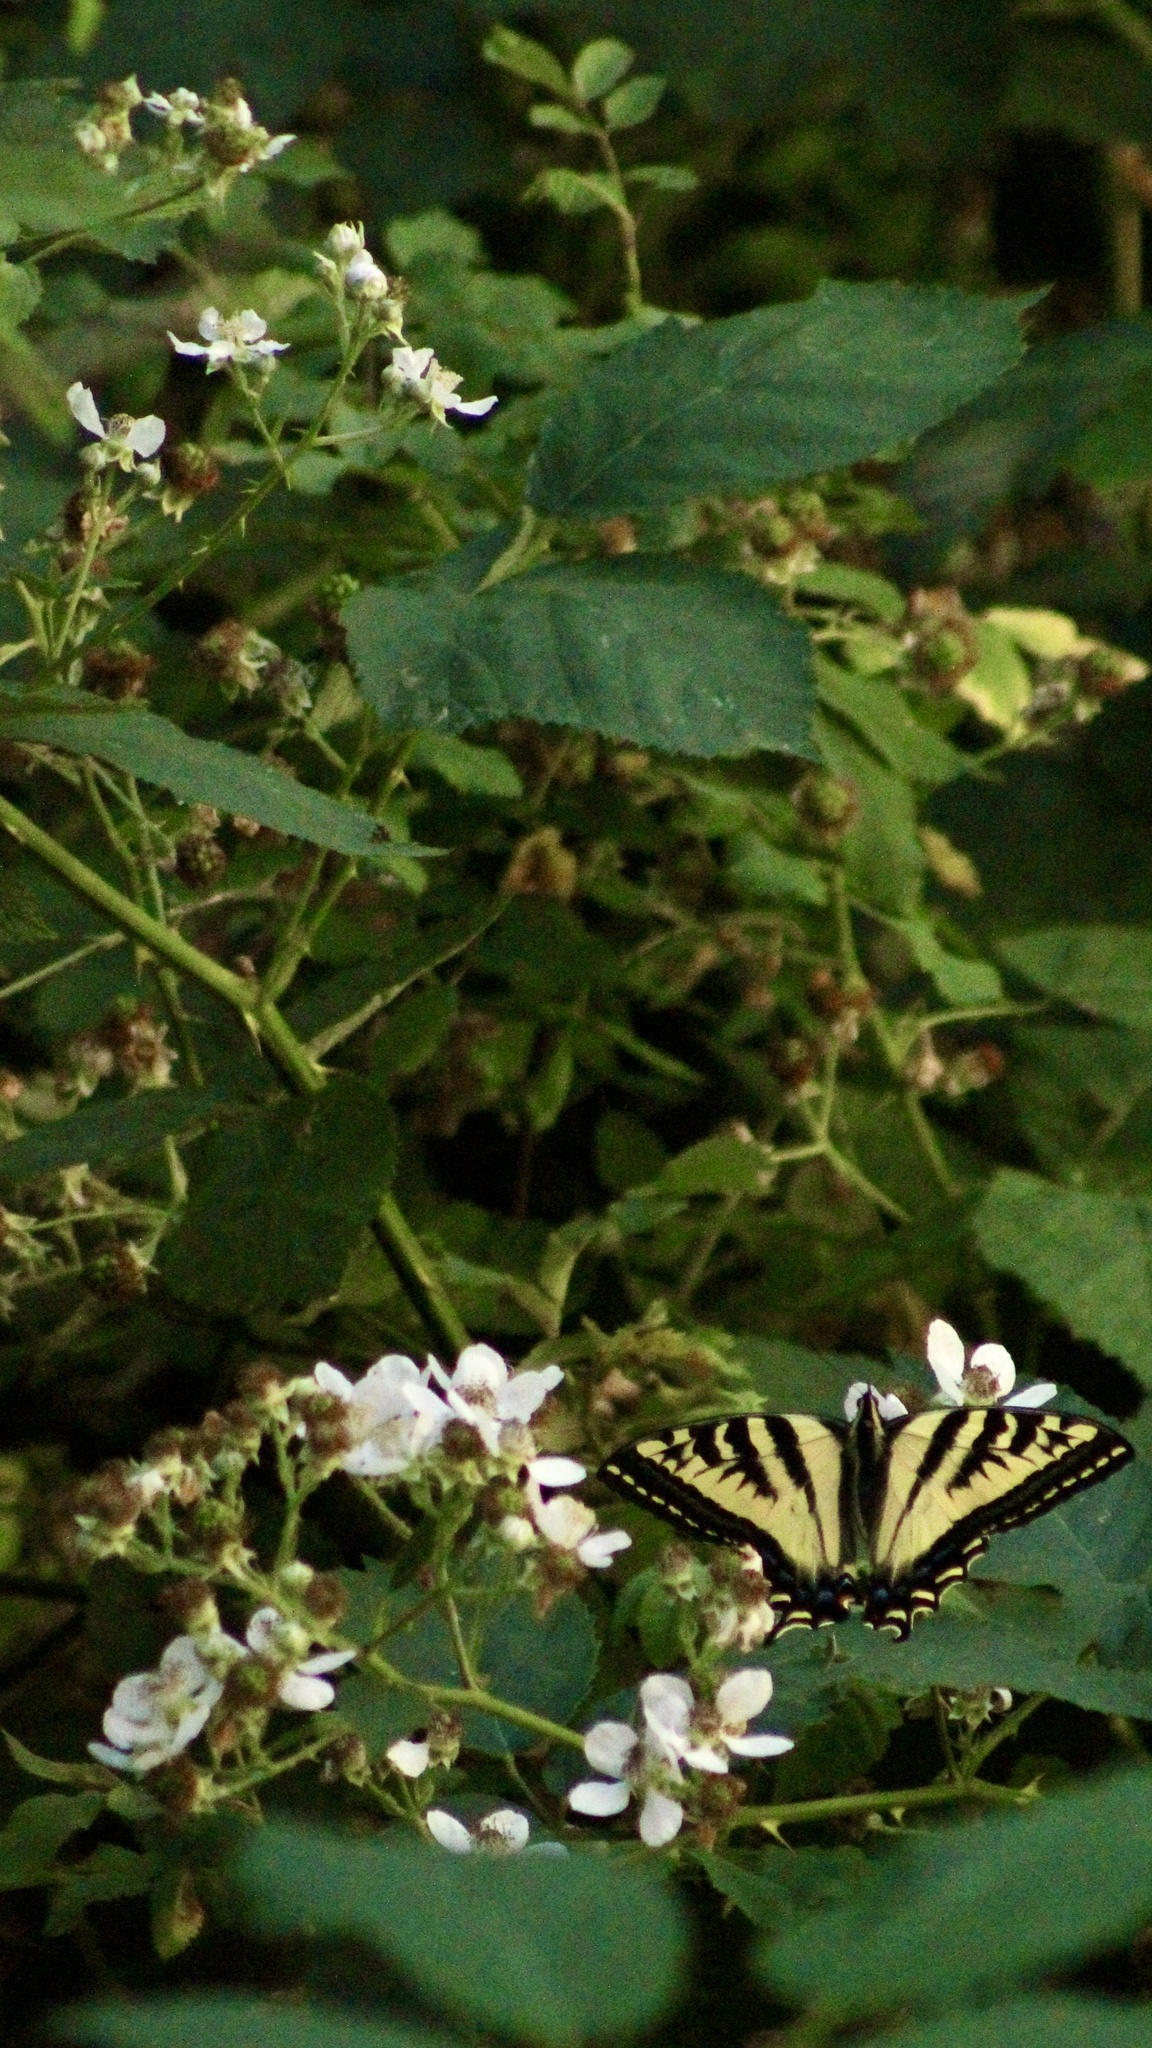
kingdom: Animalia
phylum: Arthropoda
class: Insecta
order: Lepidoptera
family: Papilionidae
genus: Papilio
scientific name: Papilio rutulus
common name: Western tiger swallowtail
